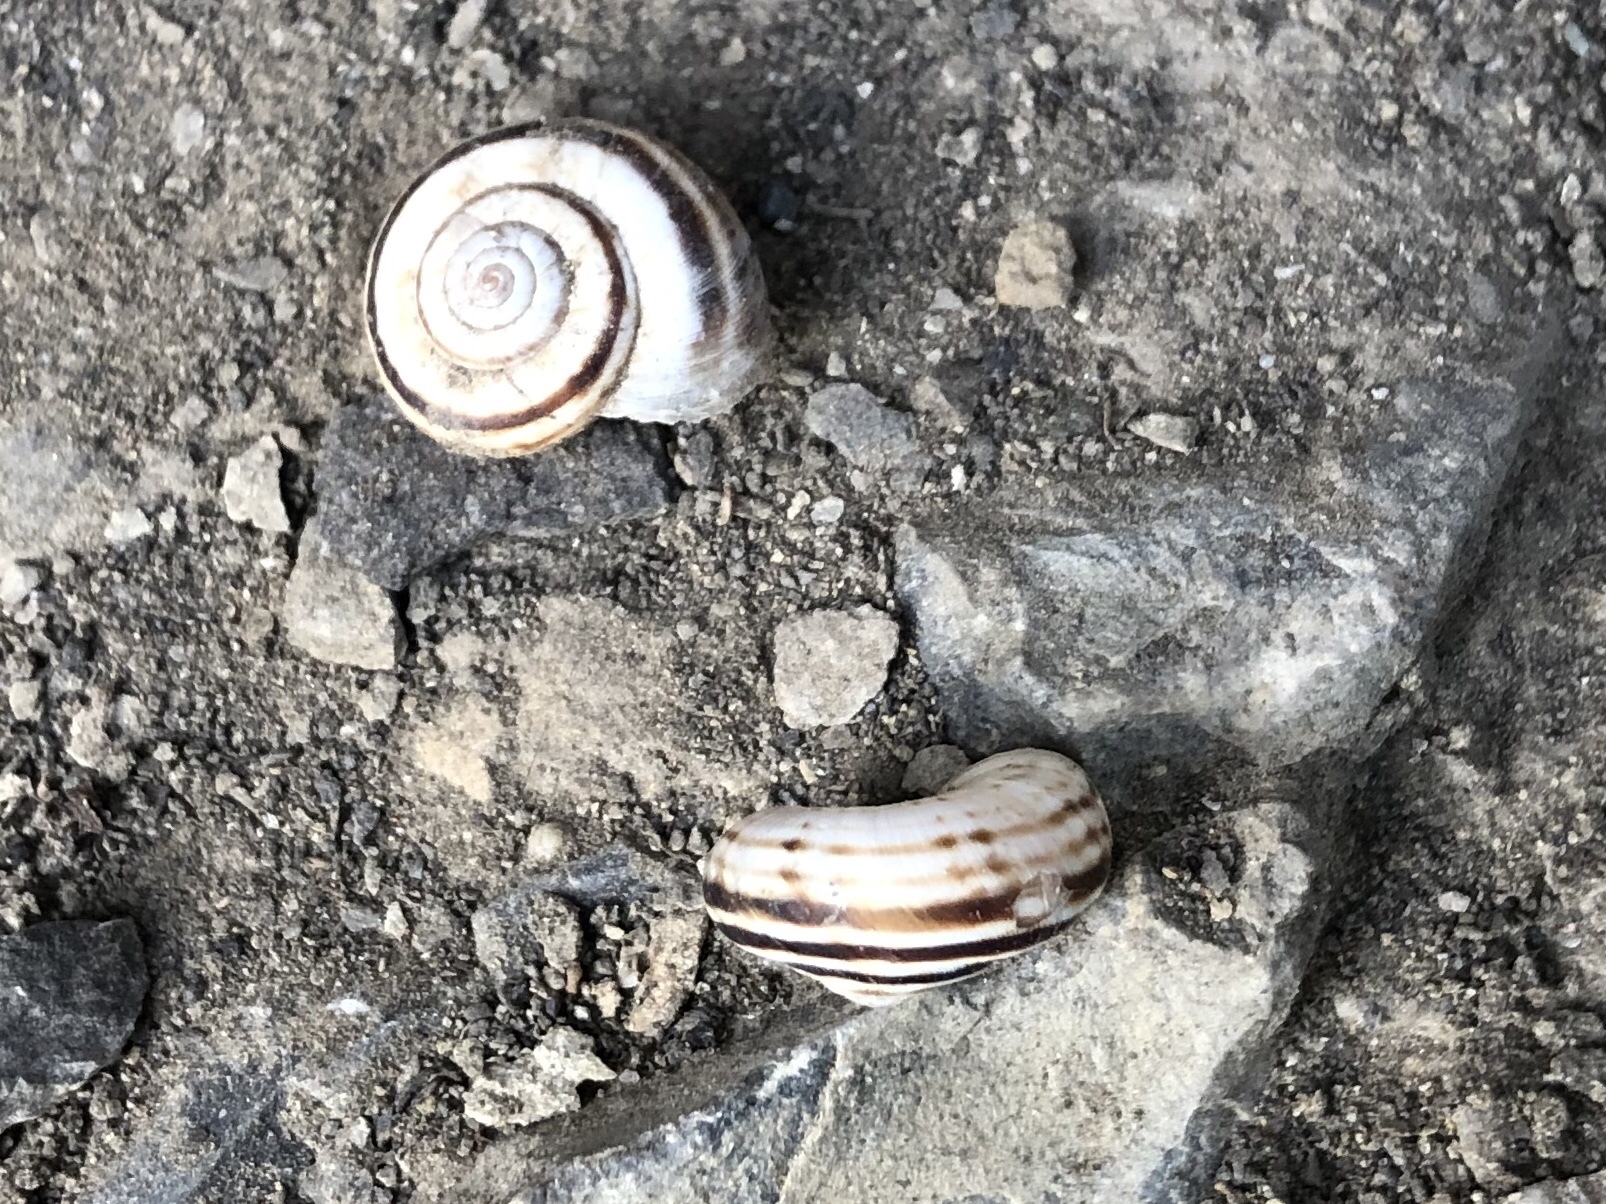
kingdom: Animalia
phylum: Mollusca
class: Gastropoda
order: Stylommatophora
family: Geomitridae
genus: Xerolenta
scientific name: Xerolenta obvia
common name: White heath snail
